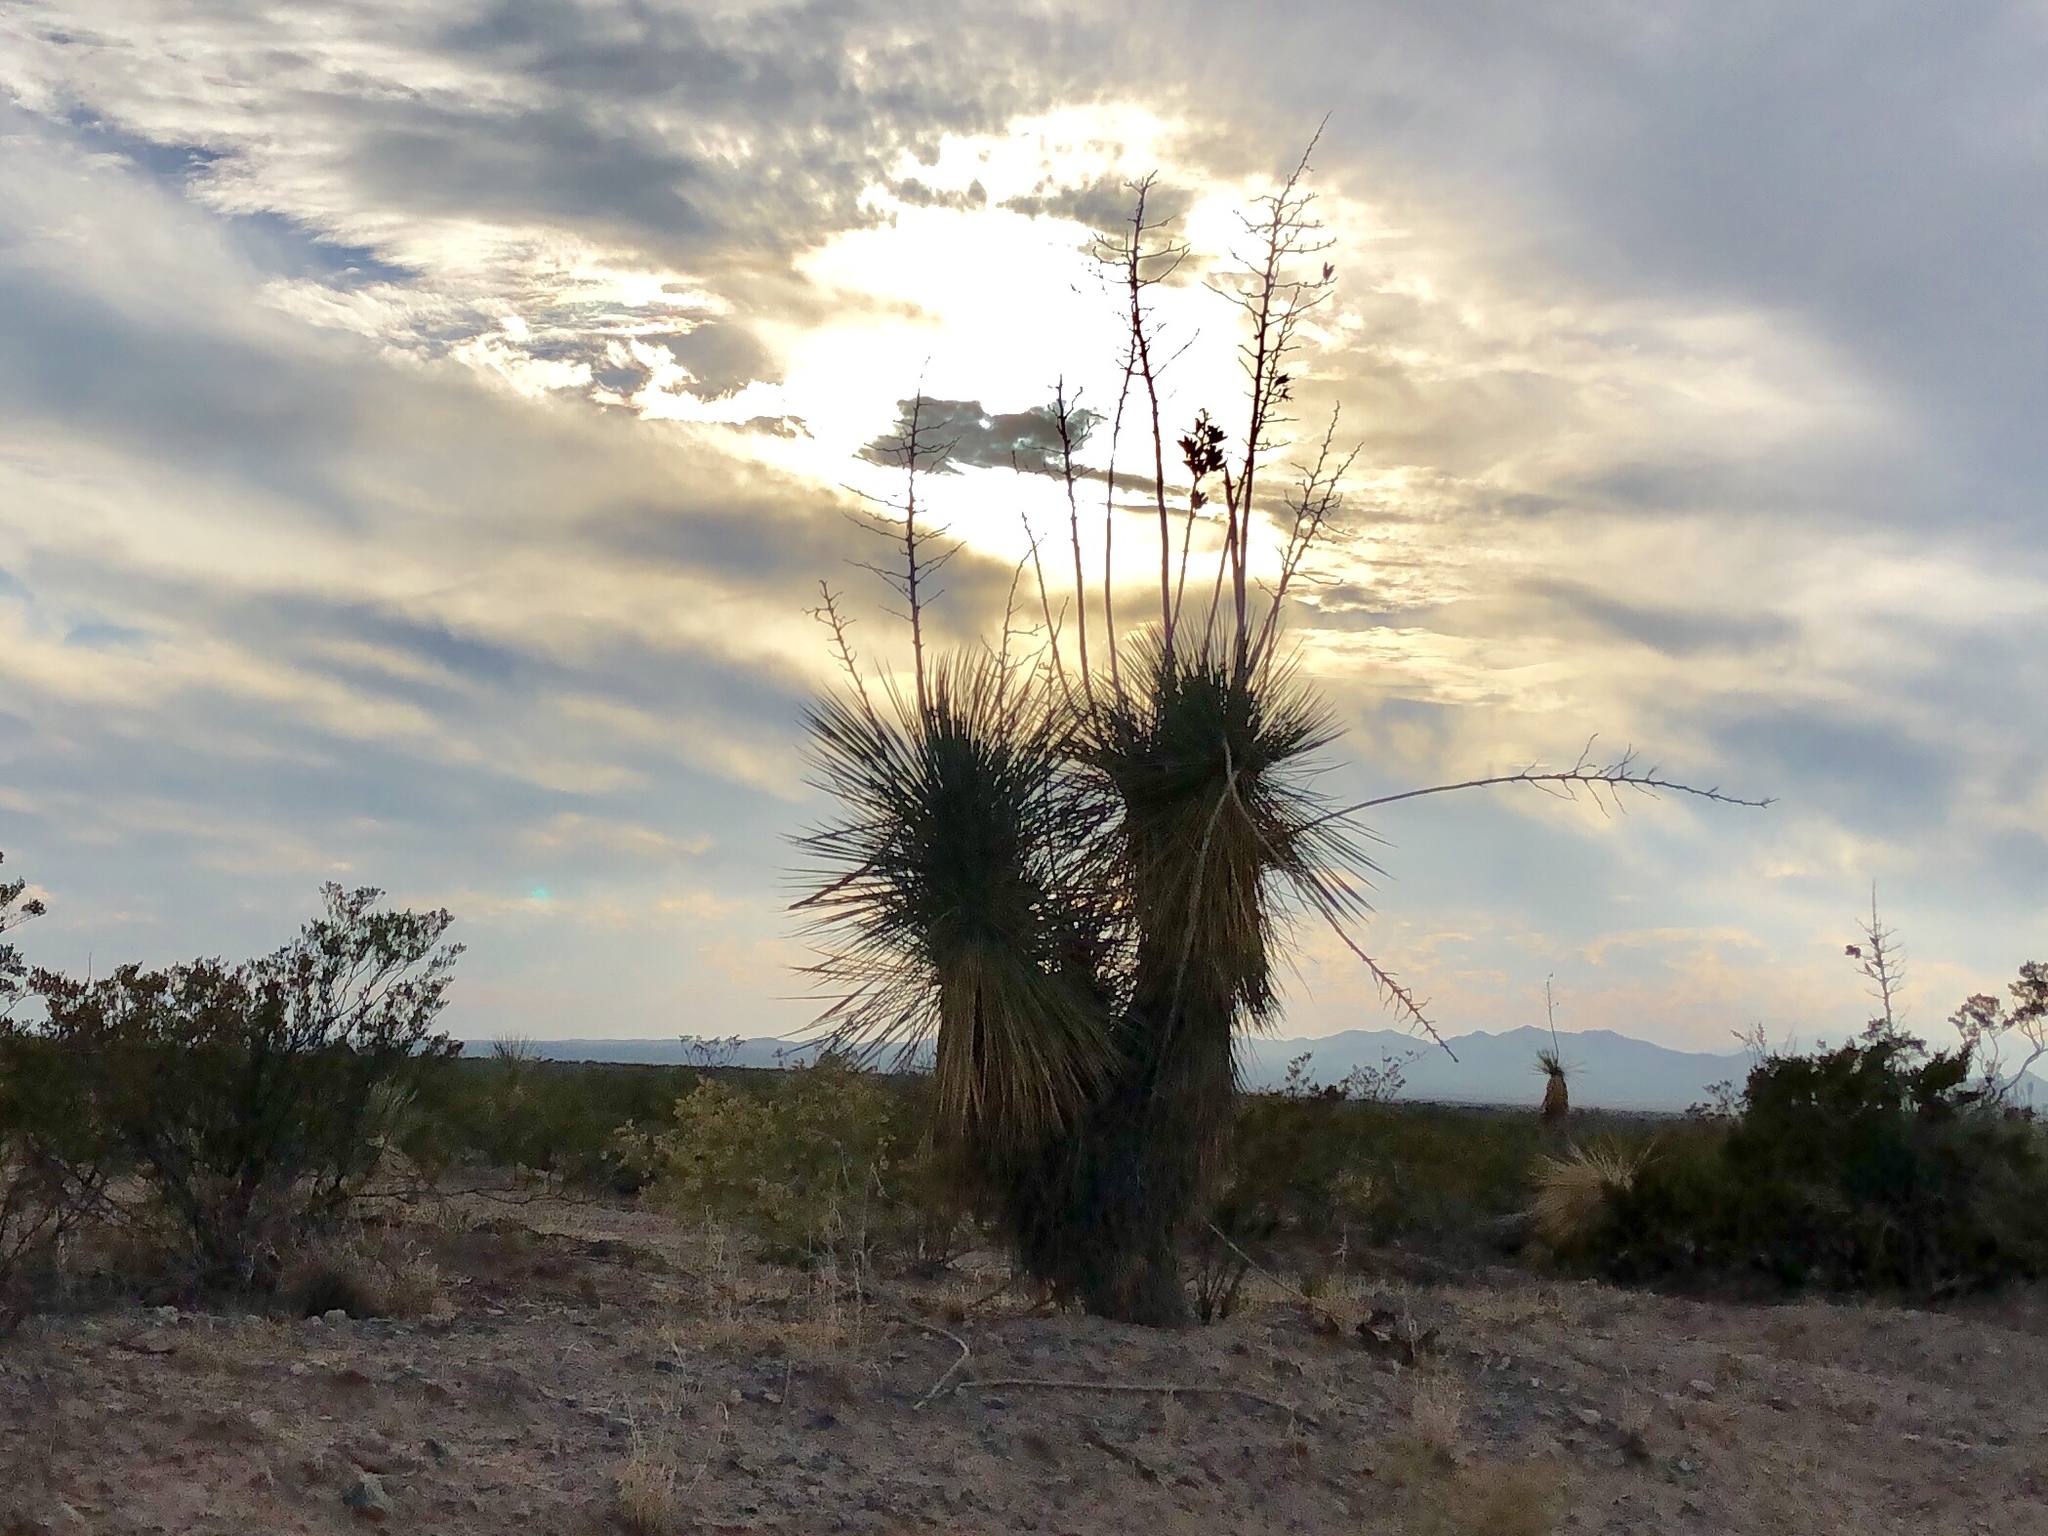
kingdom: Plantae
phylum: Tracheophyta
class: Liliopsida
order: Asparagales
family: Asparagaceae
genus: Yucca
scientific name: Yucca elata
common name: Palmella
